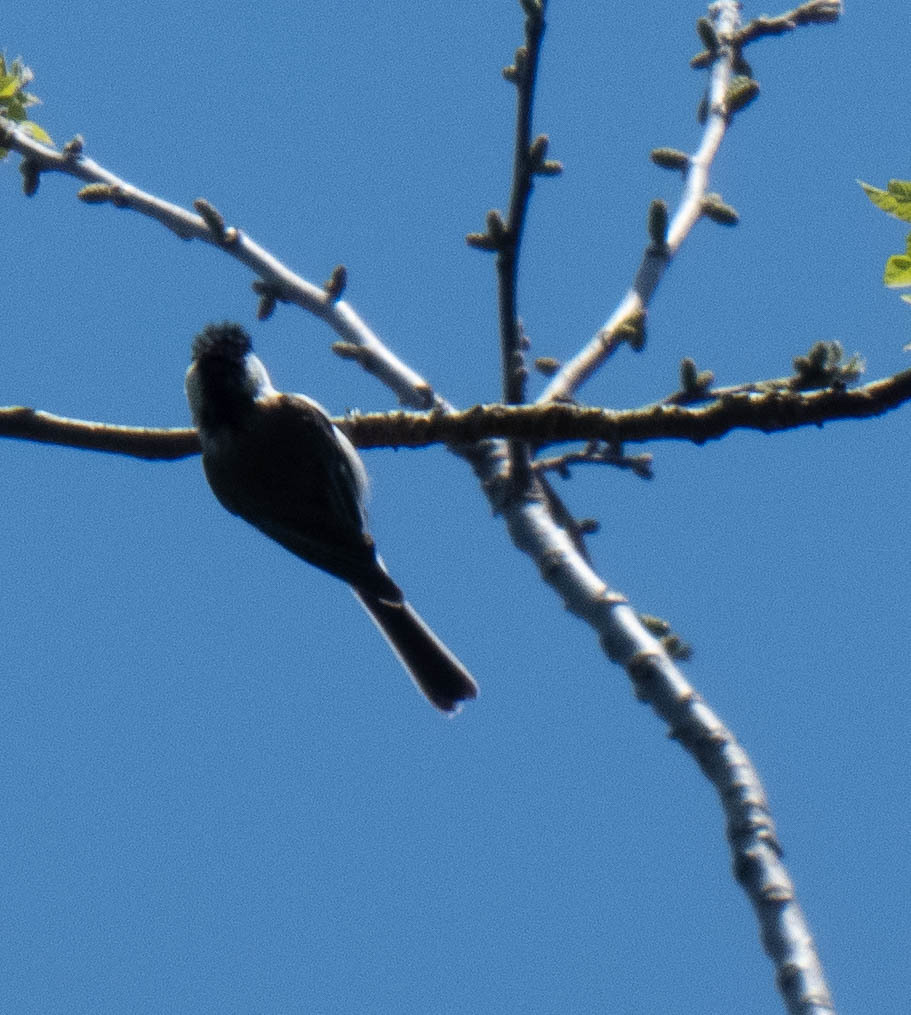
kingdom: Animalia
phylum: Chordata
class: Aves
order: Passeriformes
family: Paridae
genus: Poecile
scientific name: Poecile carolinensis
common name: Carolina chickadee
